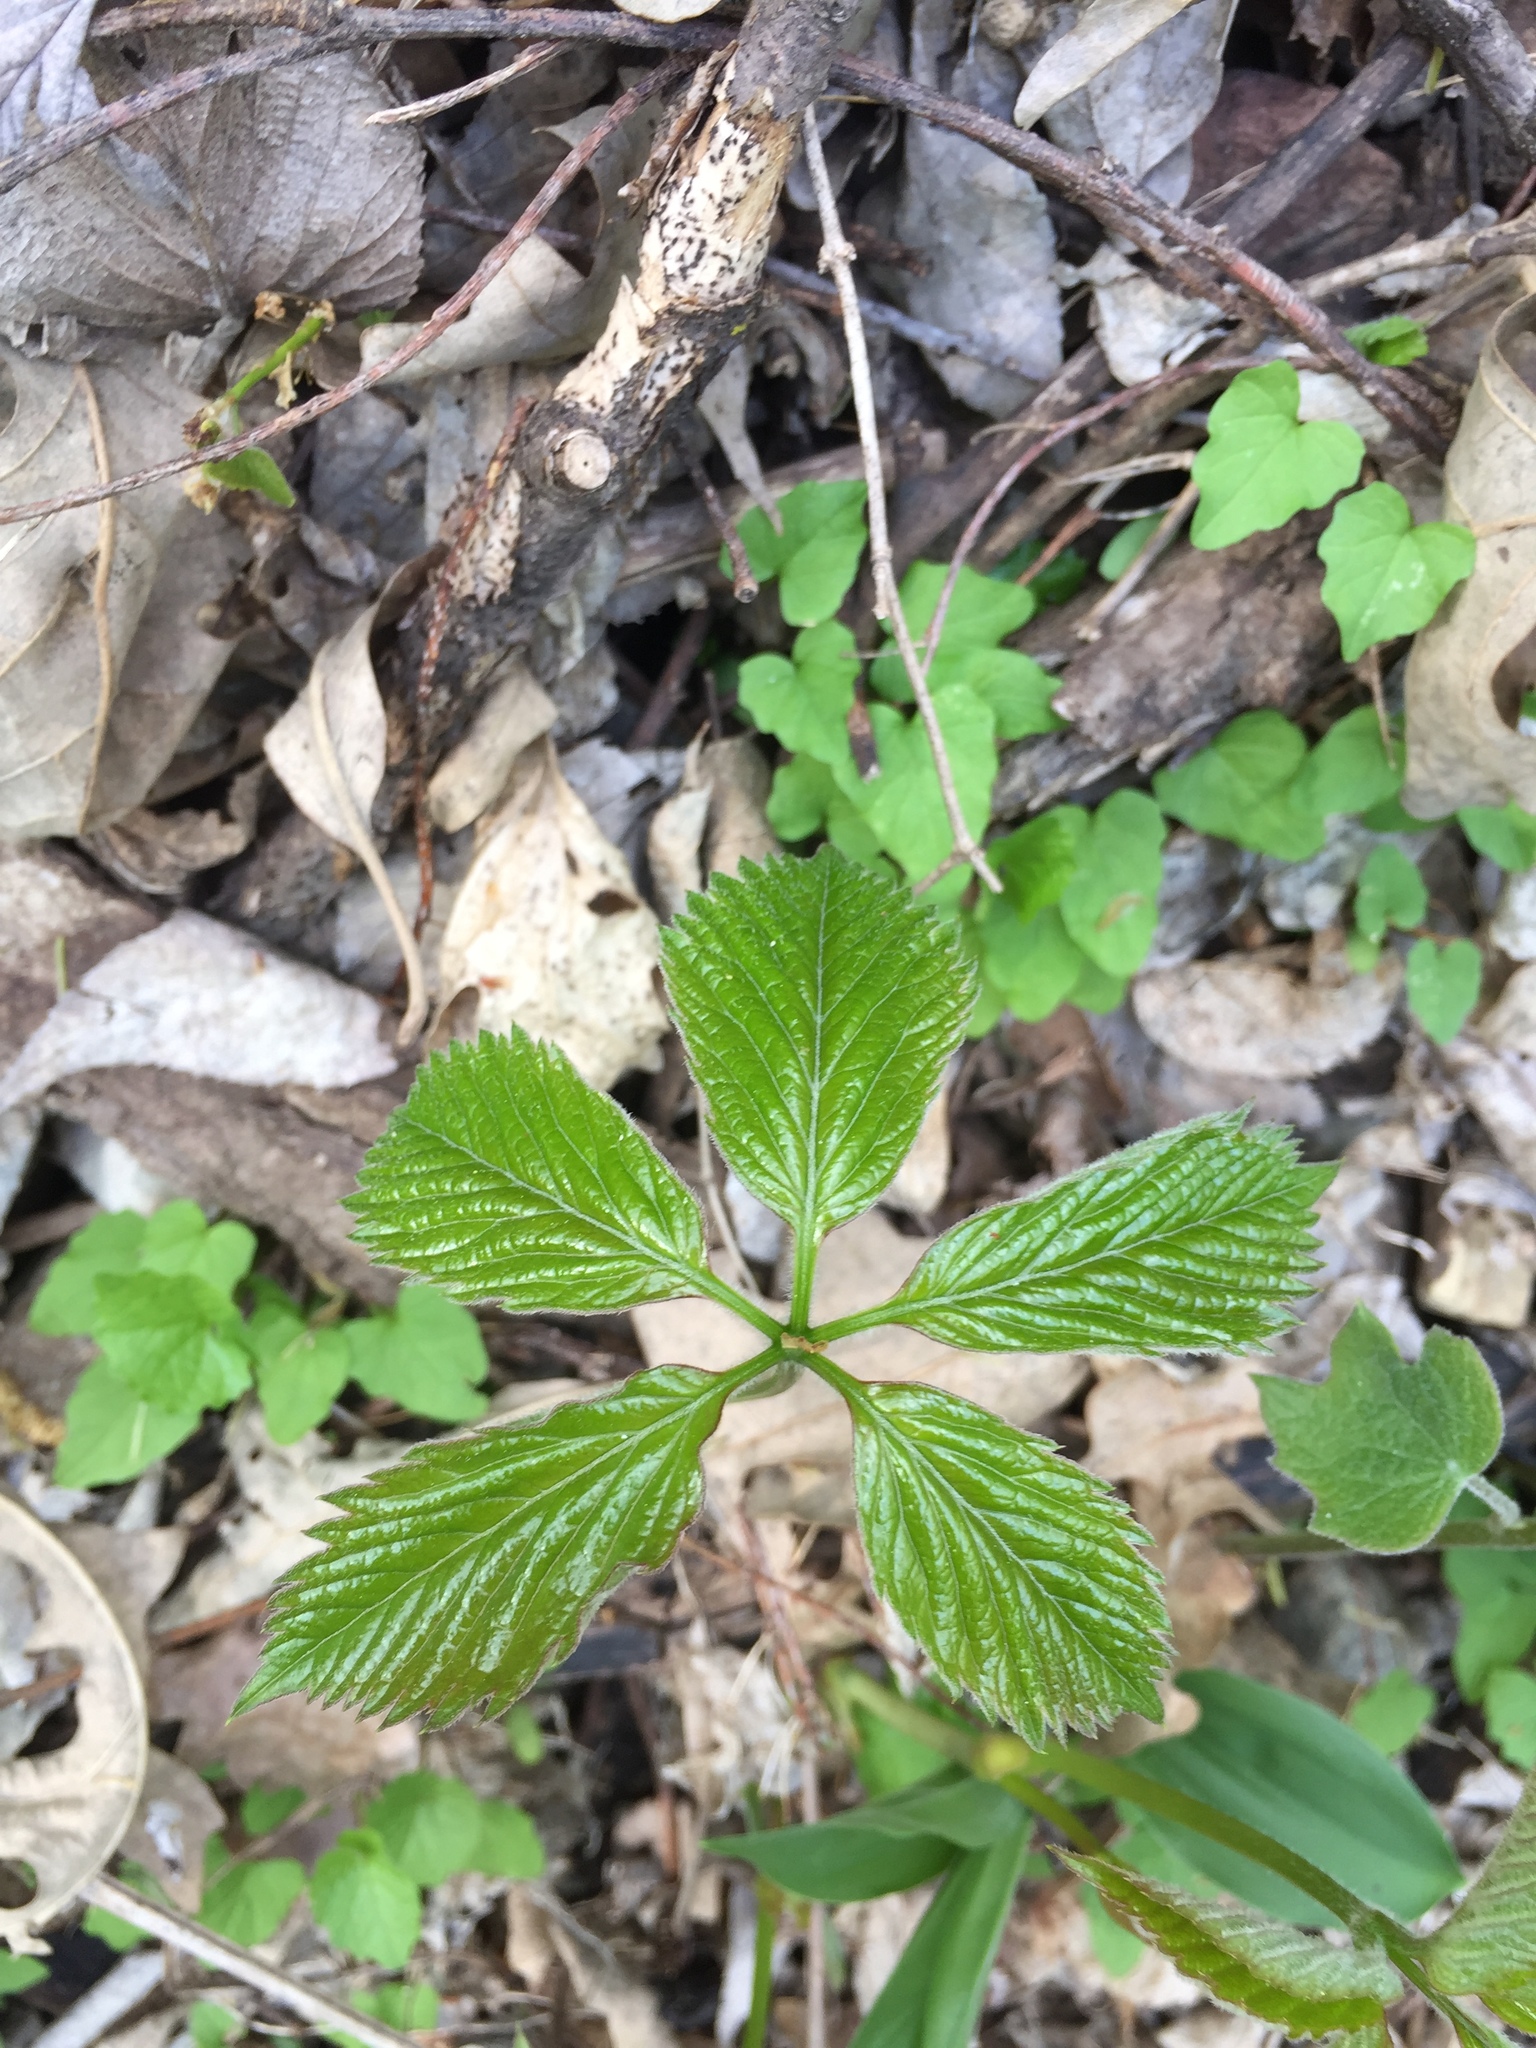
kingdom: Plantae
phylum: Tracheophyta
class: Magnoliopsida
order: Vitales
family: Vitaceae
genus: Parthenocissus
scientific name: Parthenocissus quinquefolia
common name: Virginia-creeper
